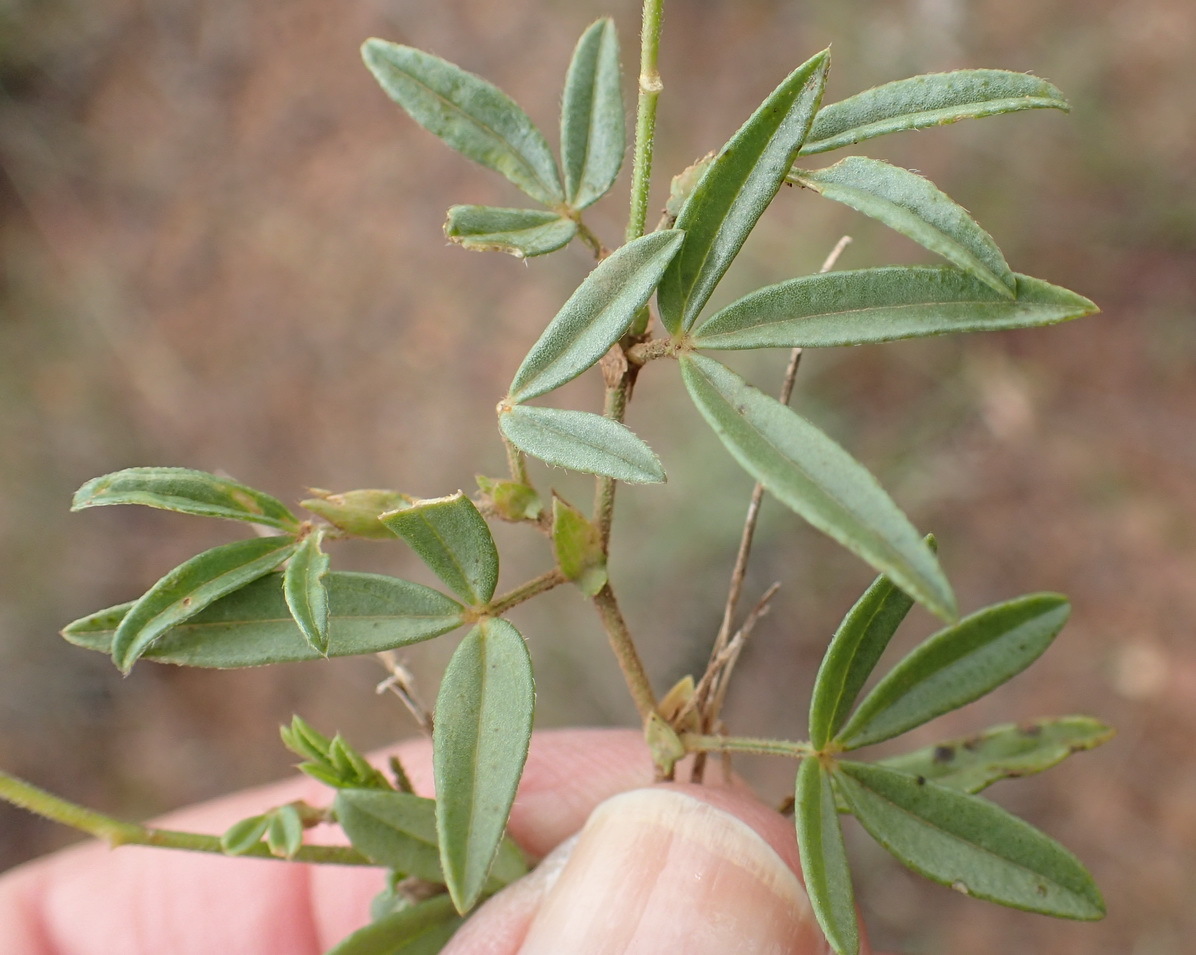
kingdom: Plantae
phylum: Tracheophyta
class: Magnoliopsida
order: Fabales
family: Fabaceae
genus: Zornia
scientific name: Zornia milneana
